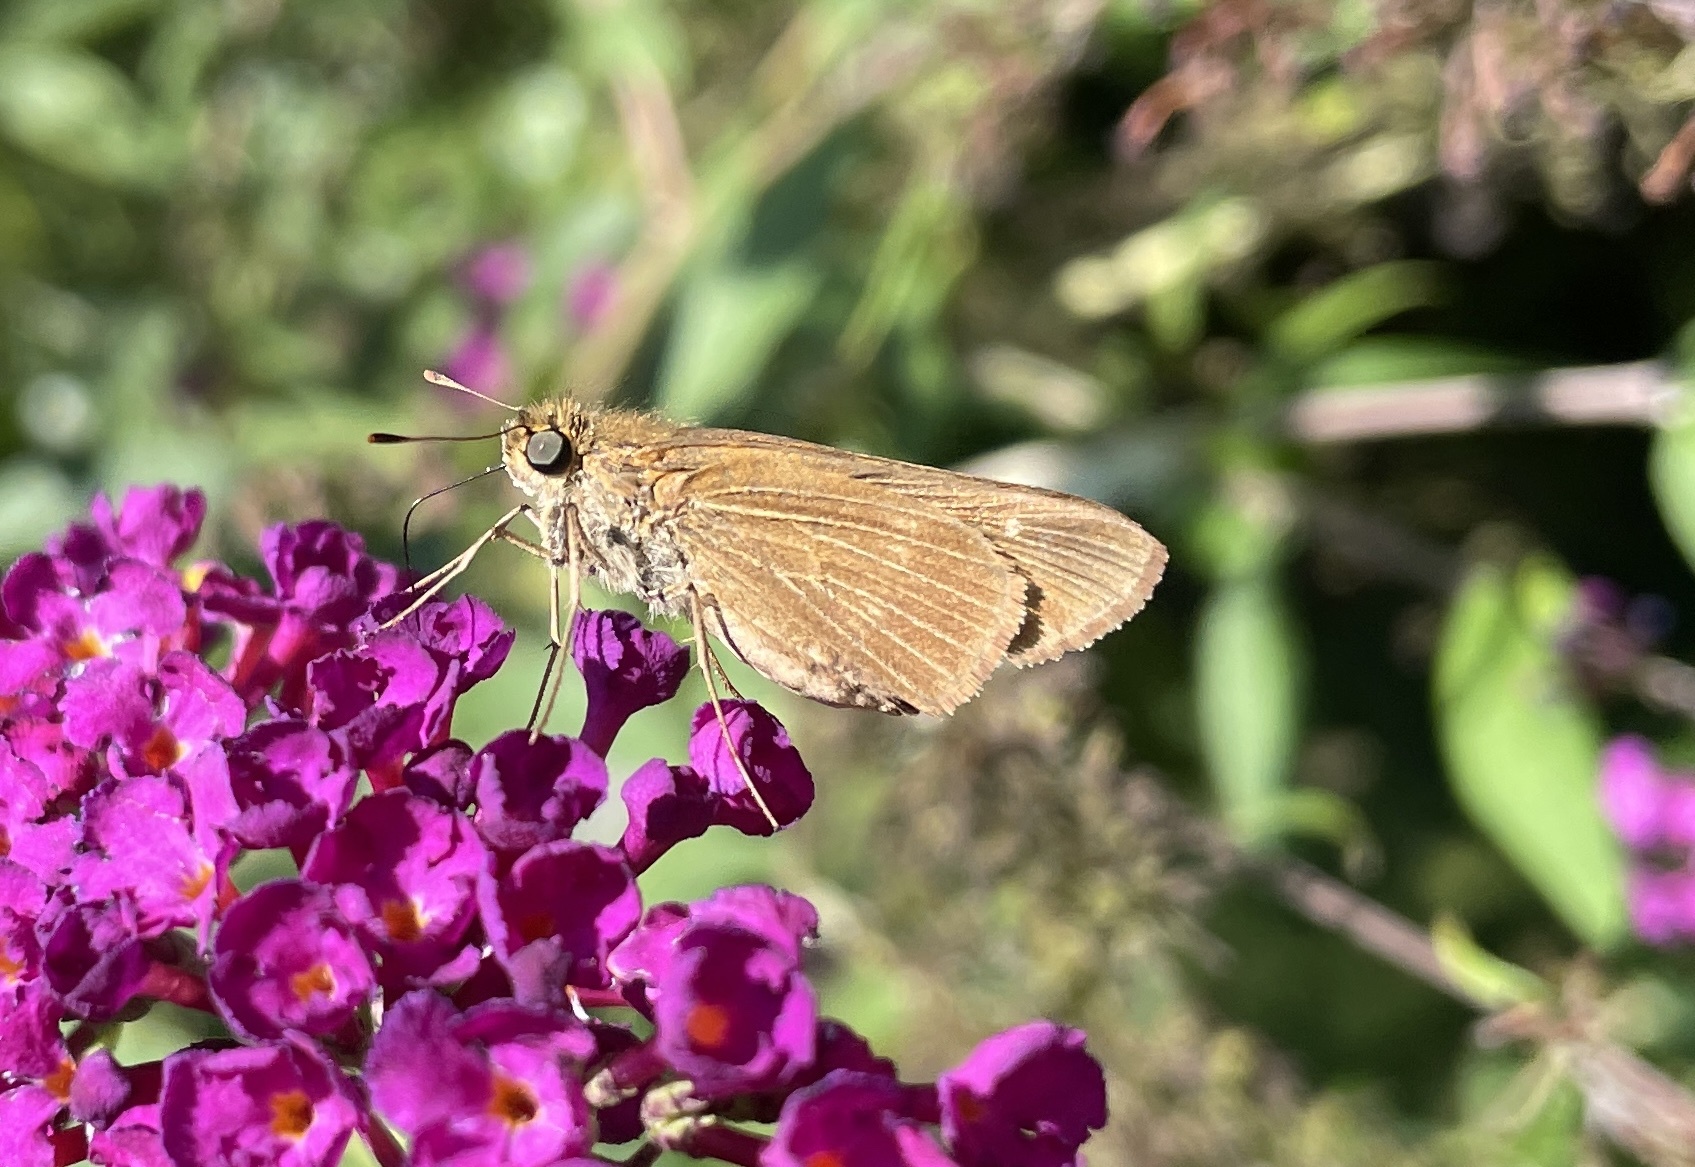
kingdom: Animalia
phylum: Arthropoda
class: Insecta
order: Lepidoptera
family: Hesperiidae
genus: Panoquina
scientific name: Panoquina ocola
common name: Ocola skipper
